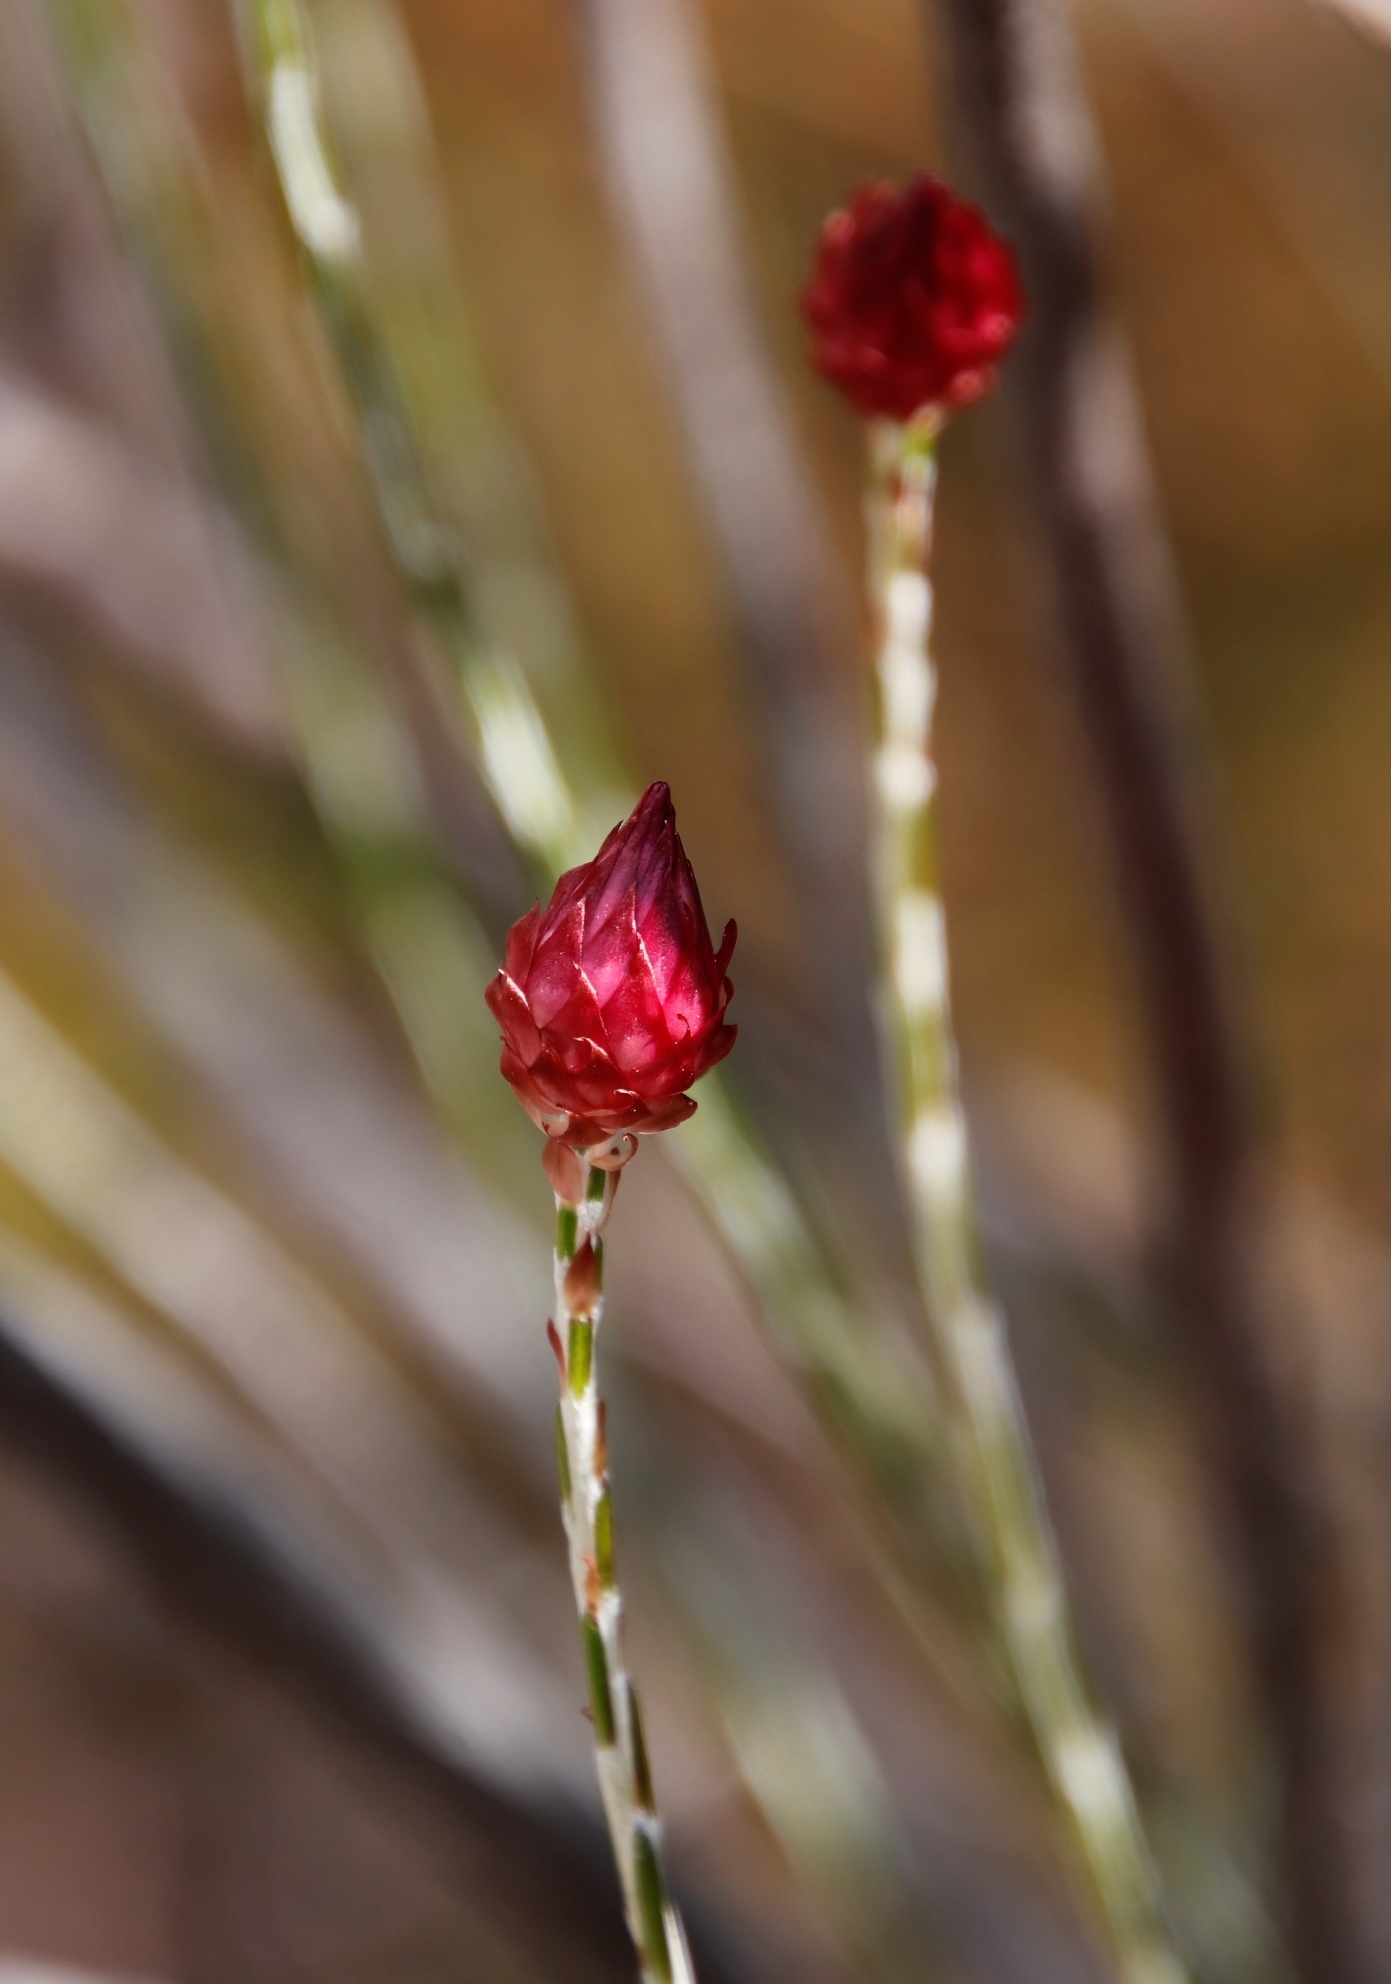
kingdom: Plantae
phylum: Tracheophyta
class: Magnoliopsida
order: Asterales
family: Asteraceae
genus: Edmondia
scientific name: Edmondia sesamoides
